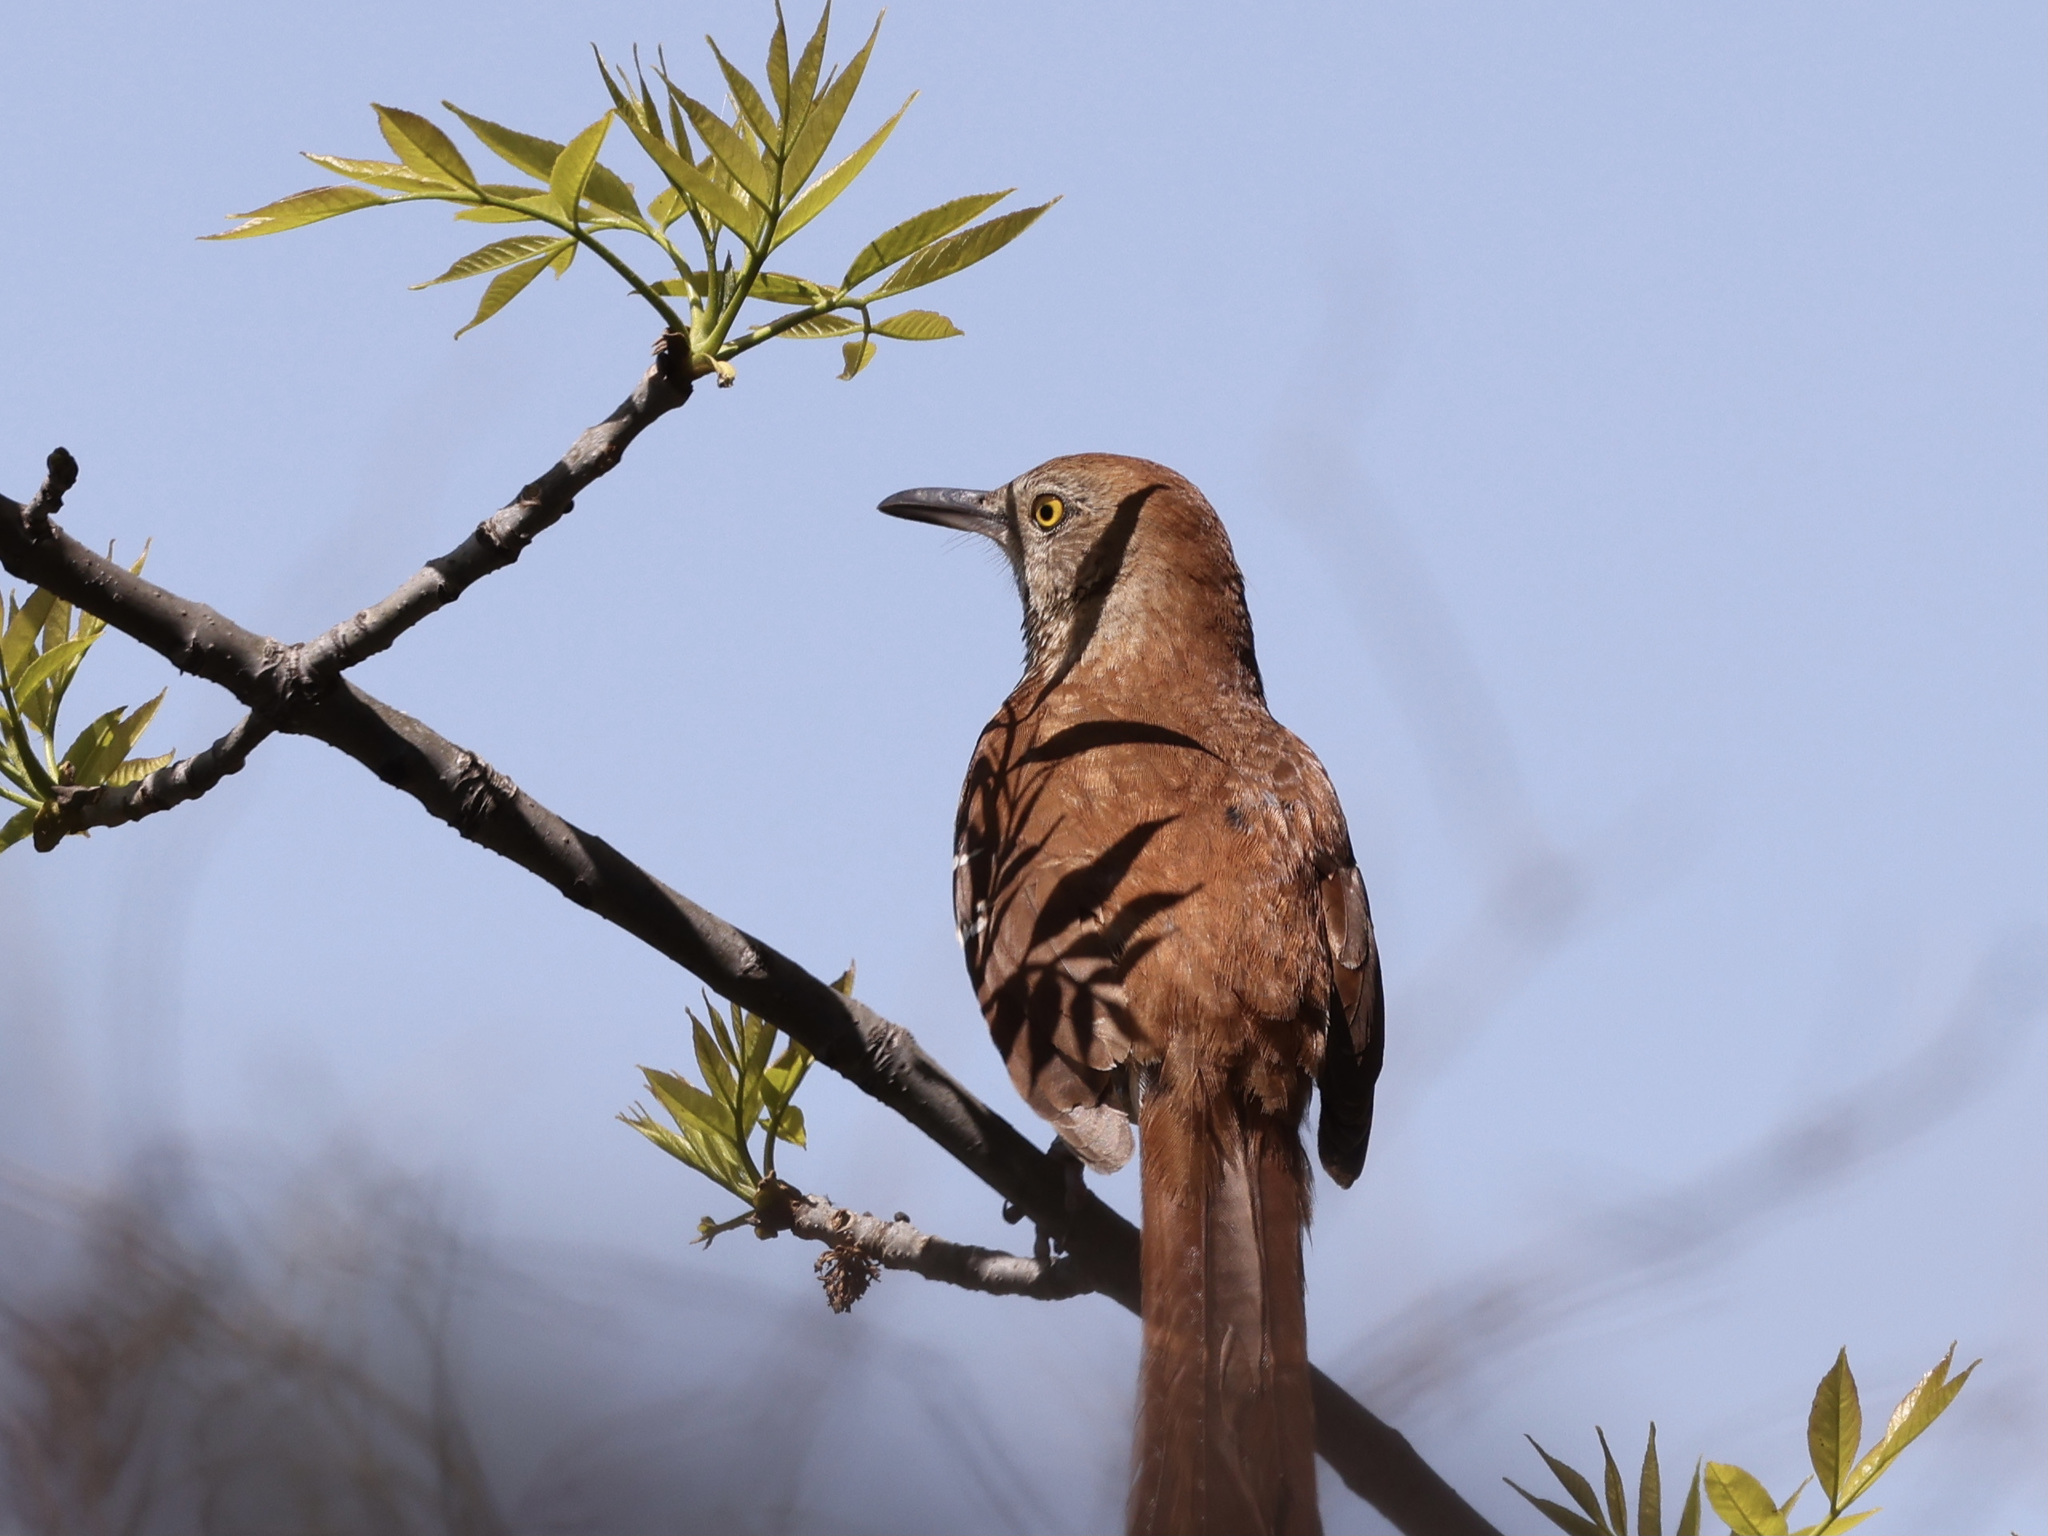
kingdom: Animalia
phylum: Chordata
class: Aves
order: Passeriformes
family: Mimidae
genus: Toxostoma
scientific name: Toxostoma rufum
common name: Brown thrasher
